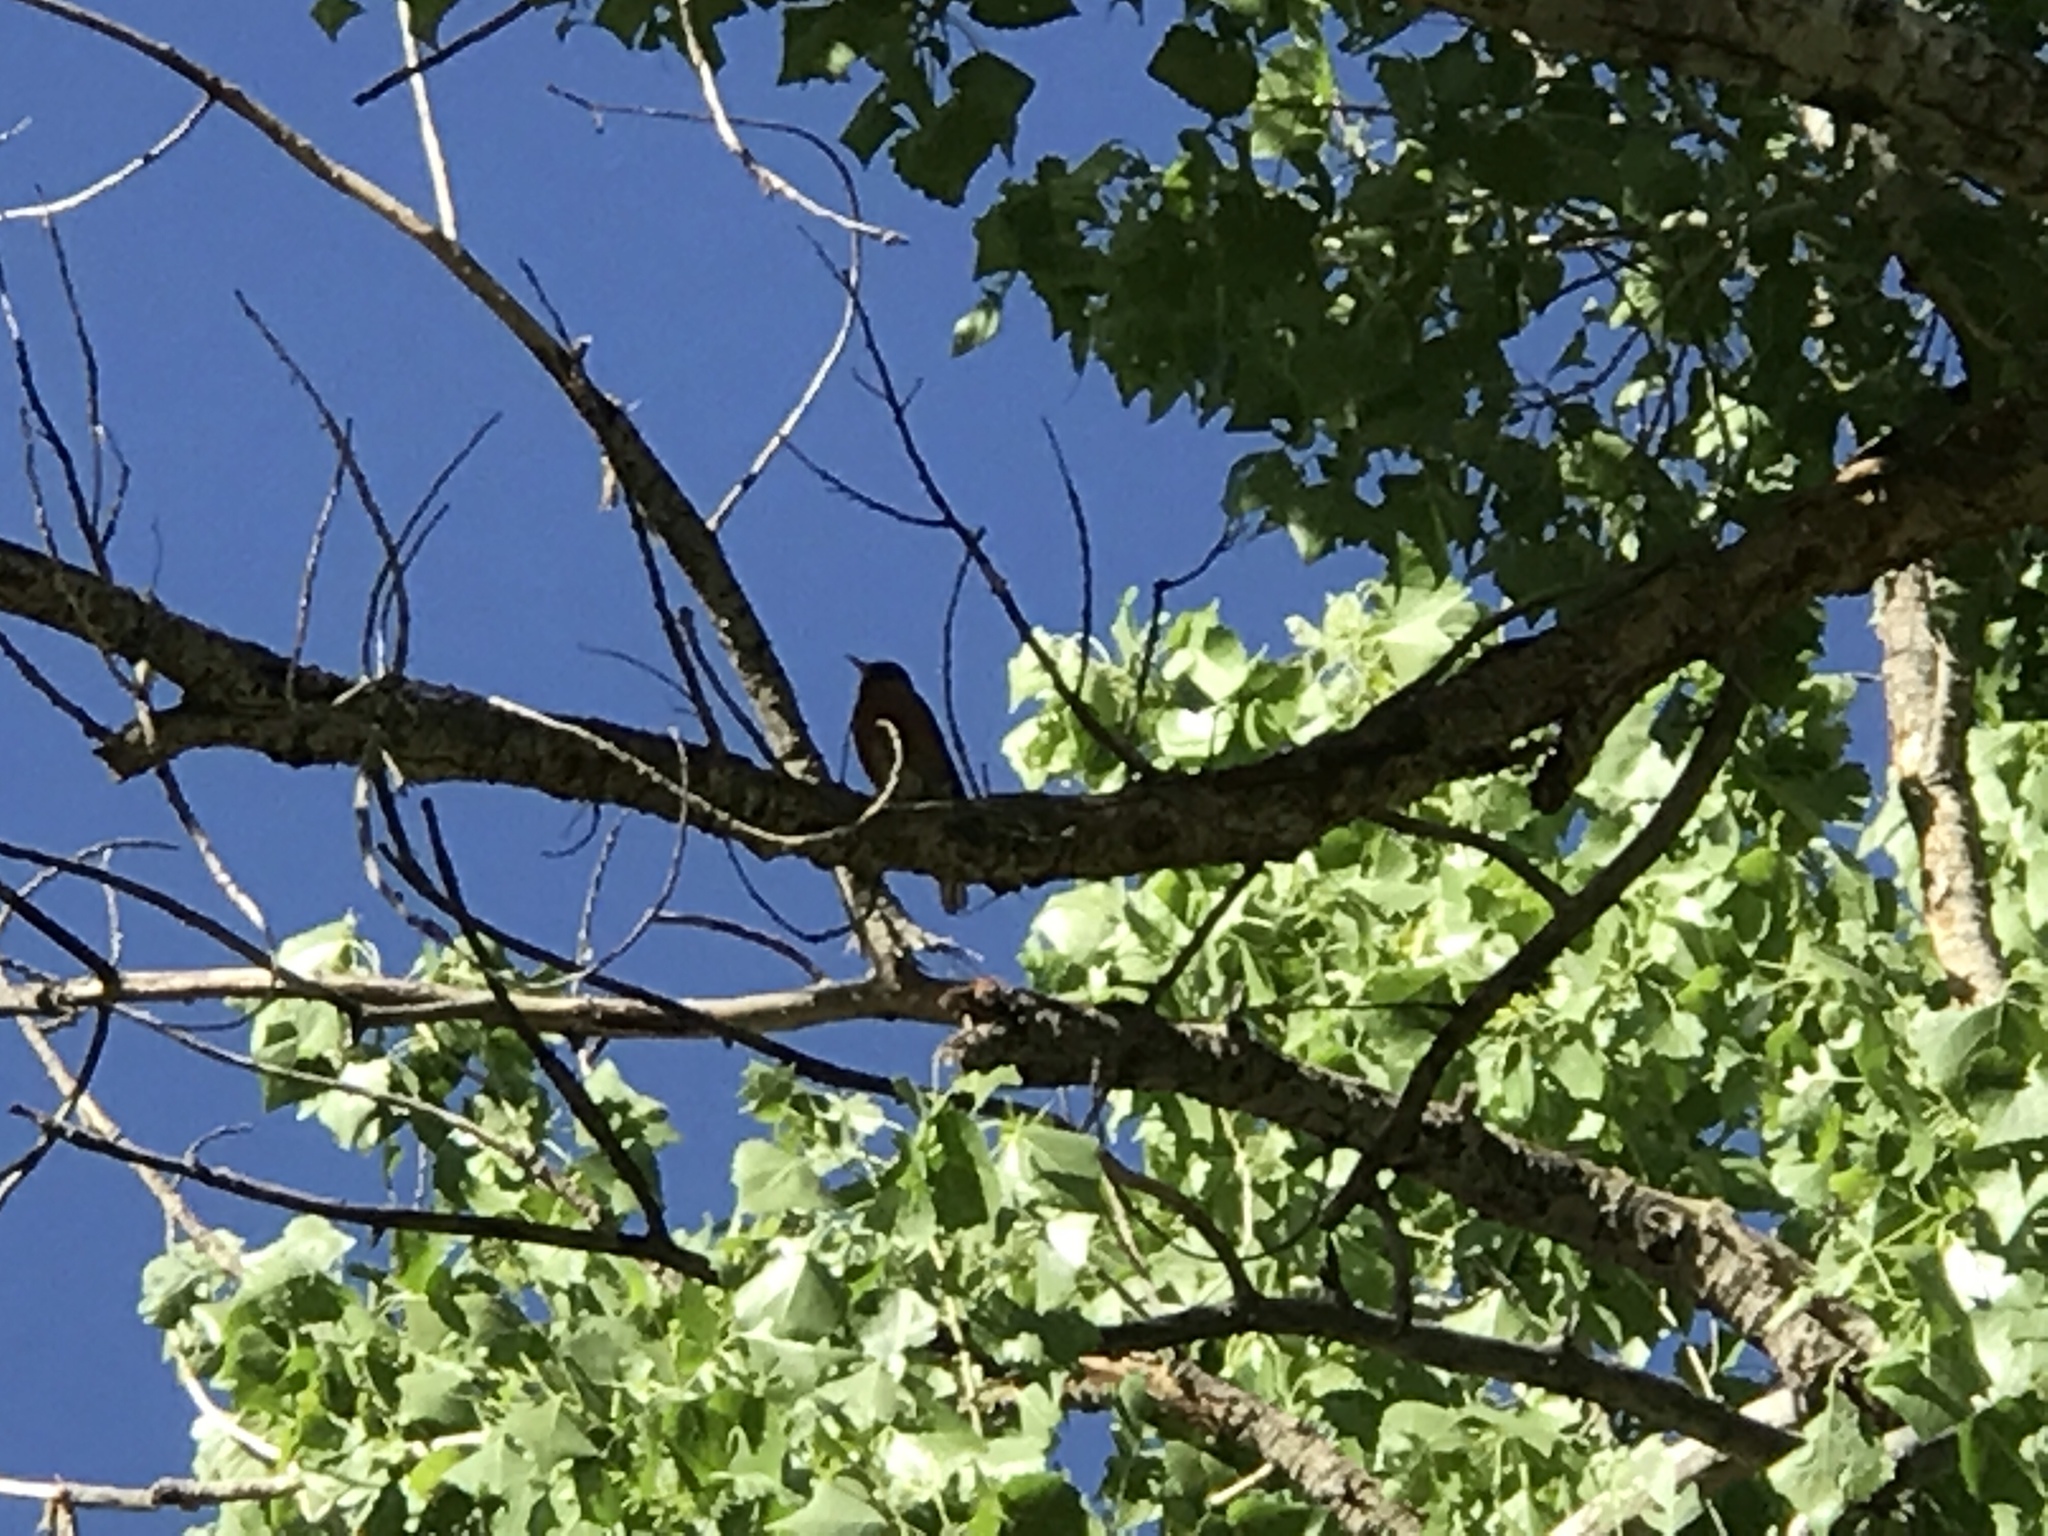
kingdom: Animalia
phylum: Chordata
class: Aves
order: Passeriformes
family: Turdidae
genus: Turdus
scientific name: Turdus migratorius
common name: American robin
